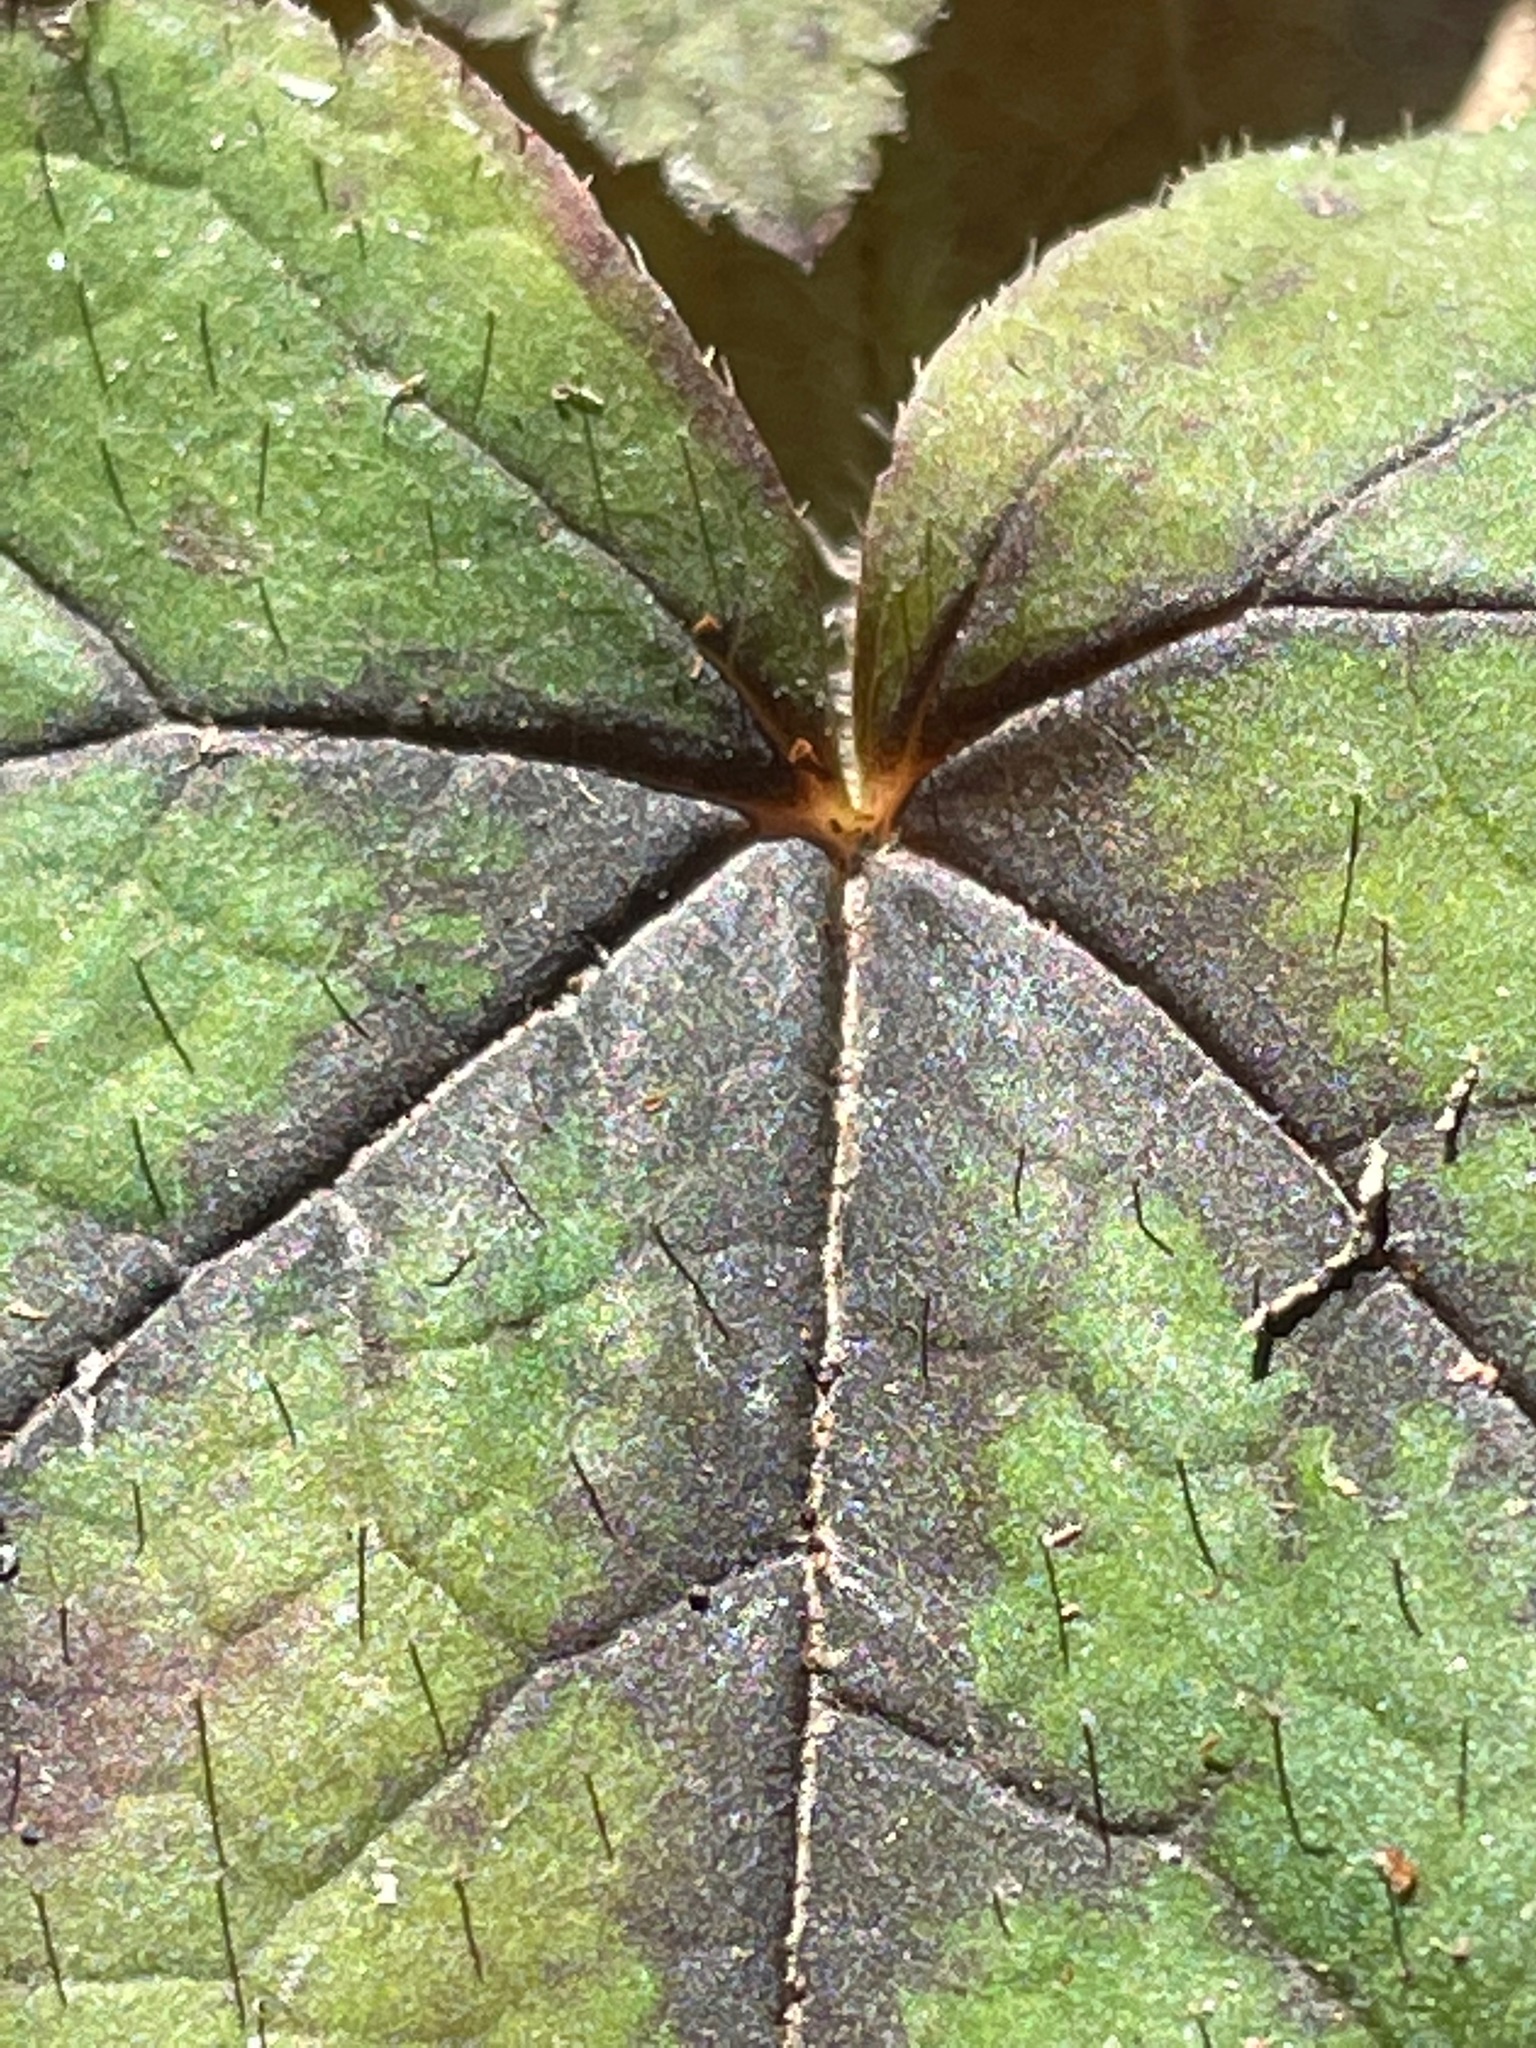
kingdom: Plantae
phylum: Tracheophyta
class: Magnoliopsida
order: Saxifragales
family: Saxifragaceae
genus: Tiarella
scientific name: Tiarella stolonifera
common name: Stoloniferous foamflower
